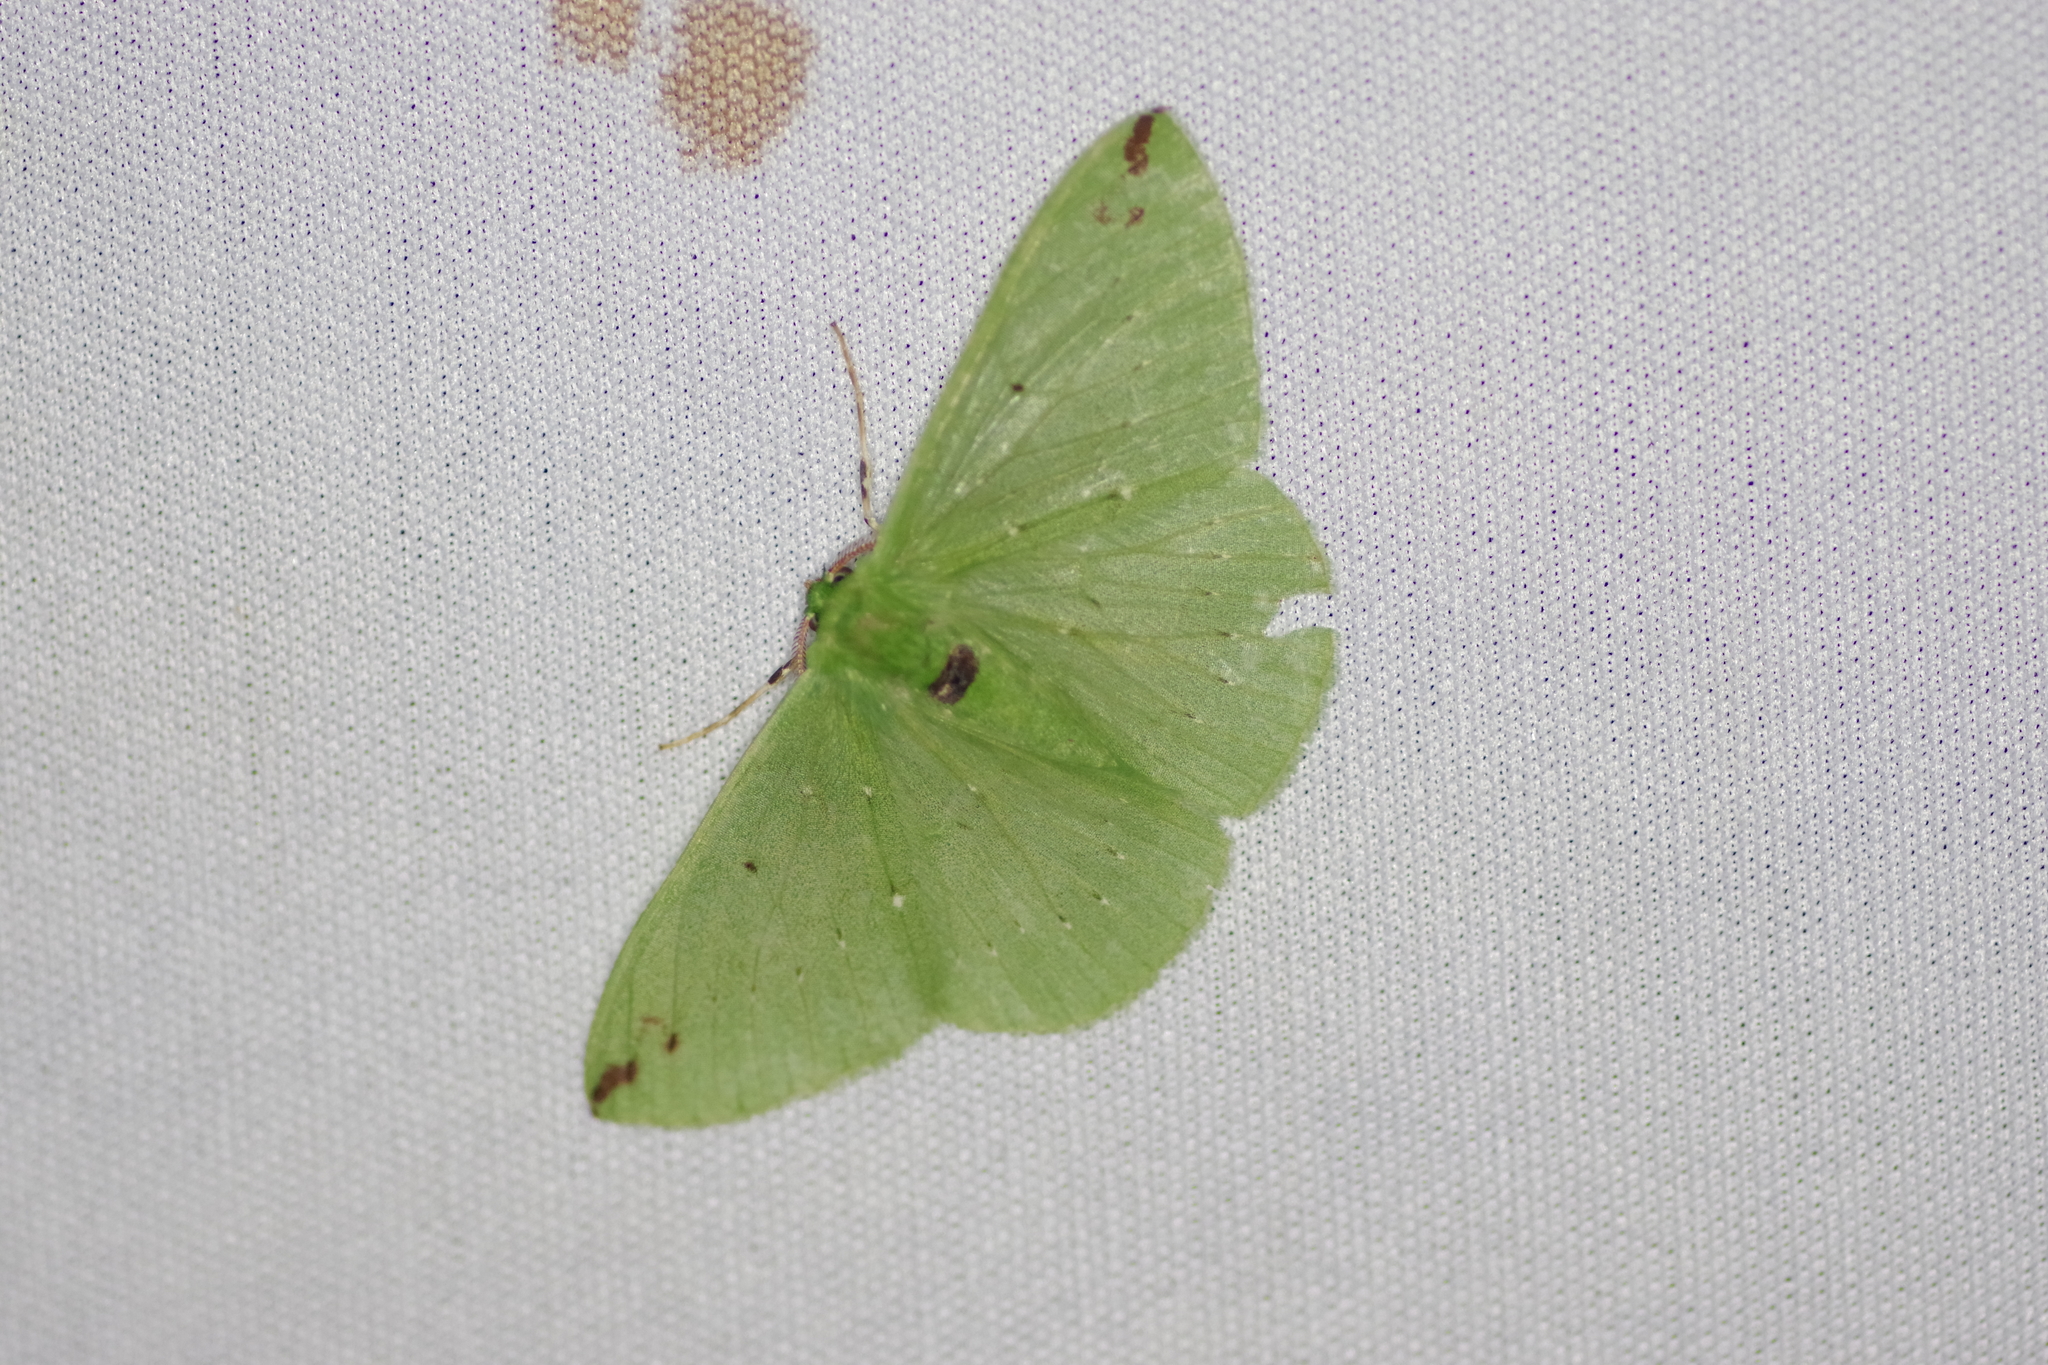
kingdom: Animalia
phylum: Arthropoda
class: Insecta
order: Lepidoptera
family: Geometridae
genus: Nemoria
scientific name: Nemoria erina
